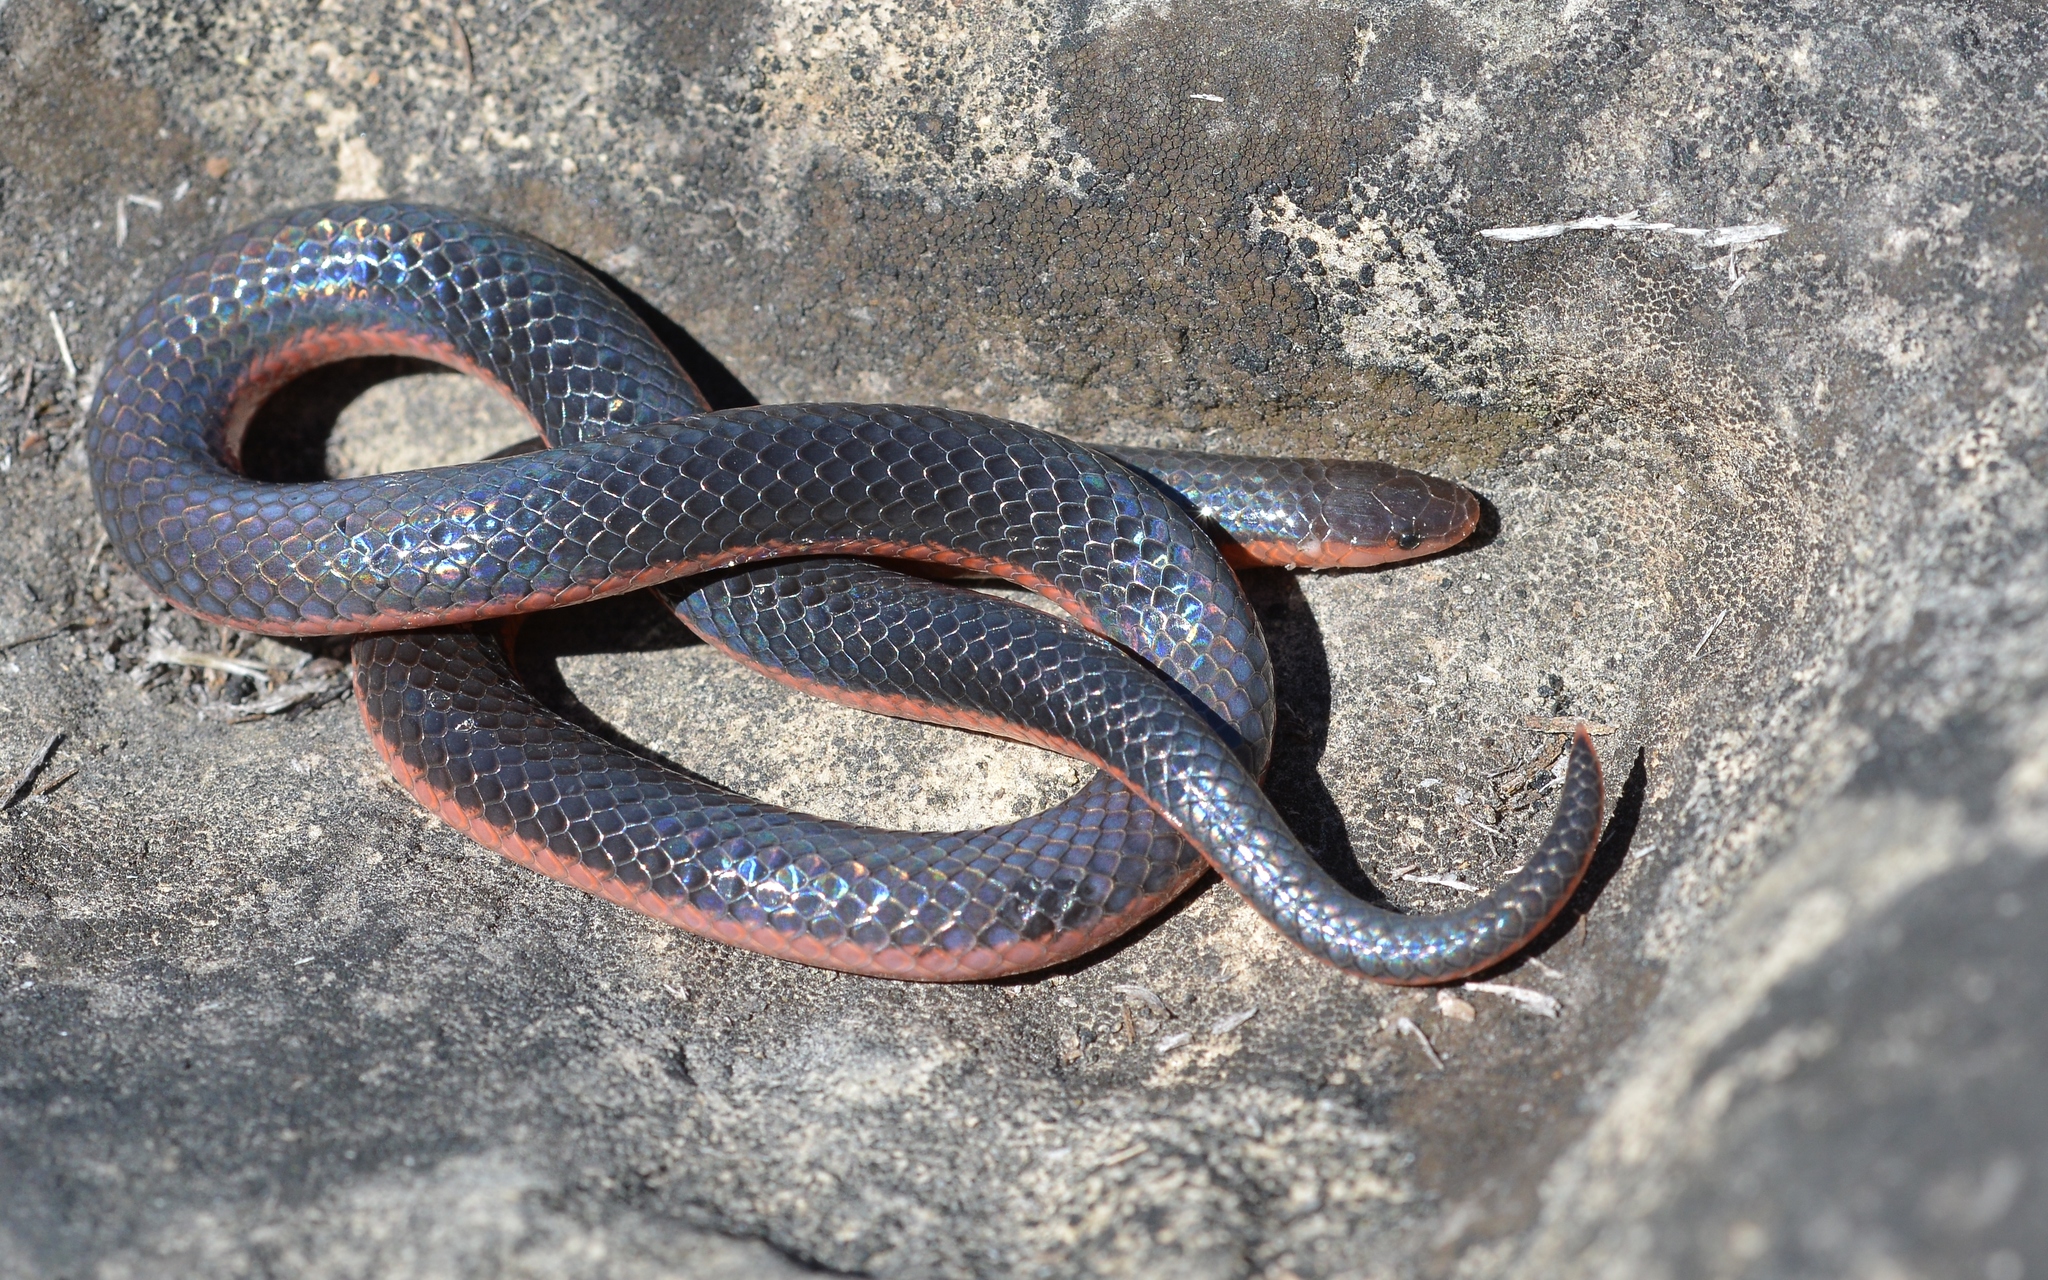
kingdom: Animalia
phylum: Chordata
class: Squamata
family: Colubridae
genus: Carphophis
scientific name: Carphophis vermis
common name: Western worm snake
